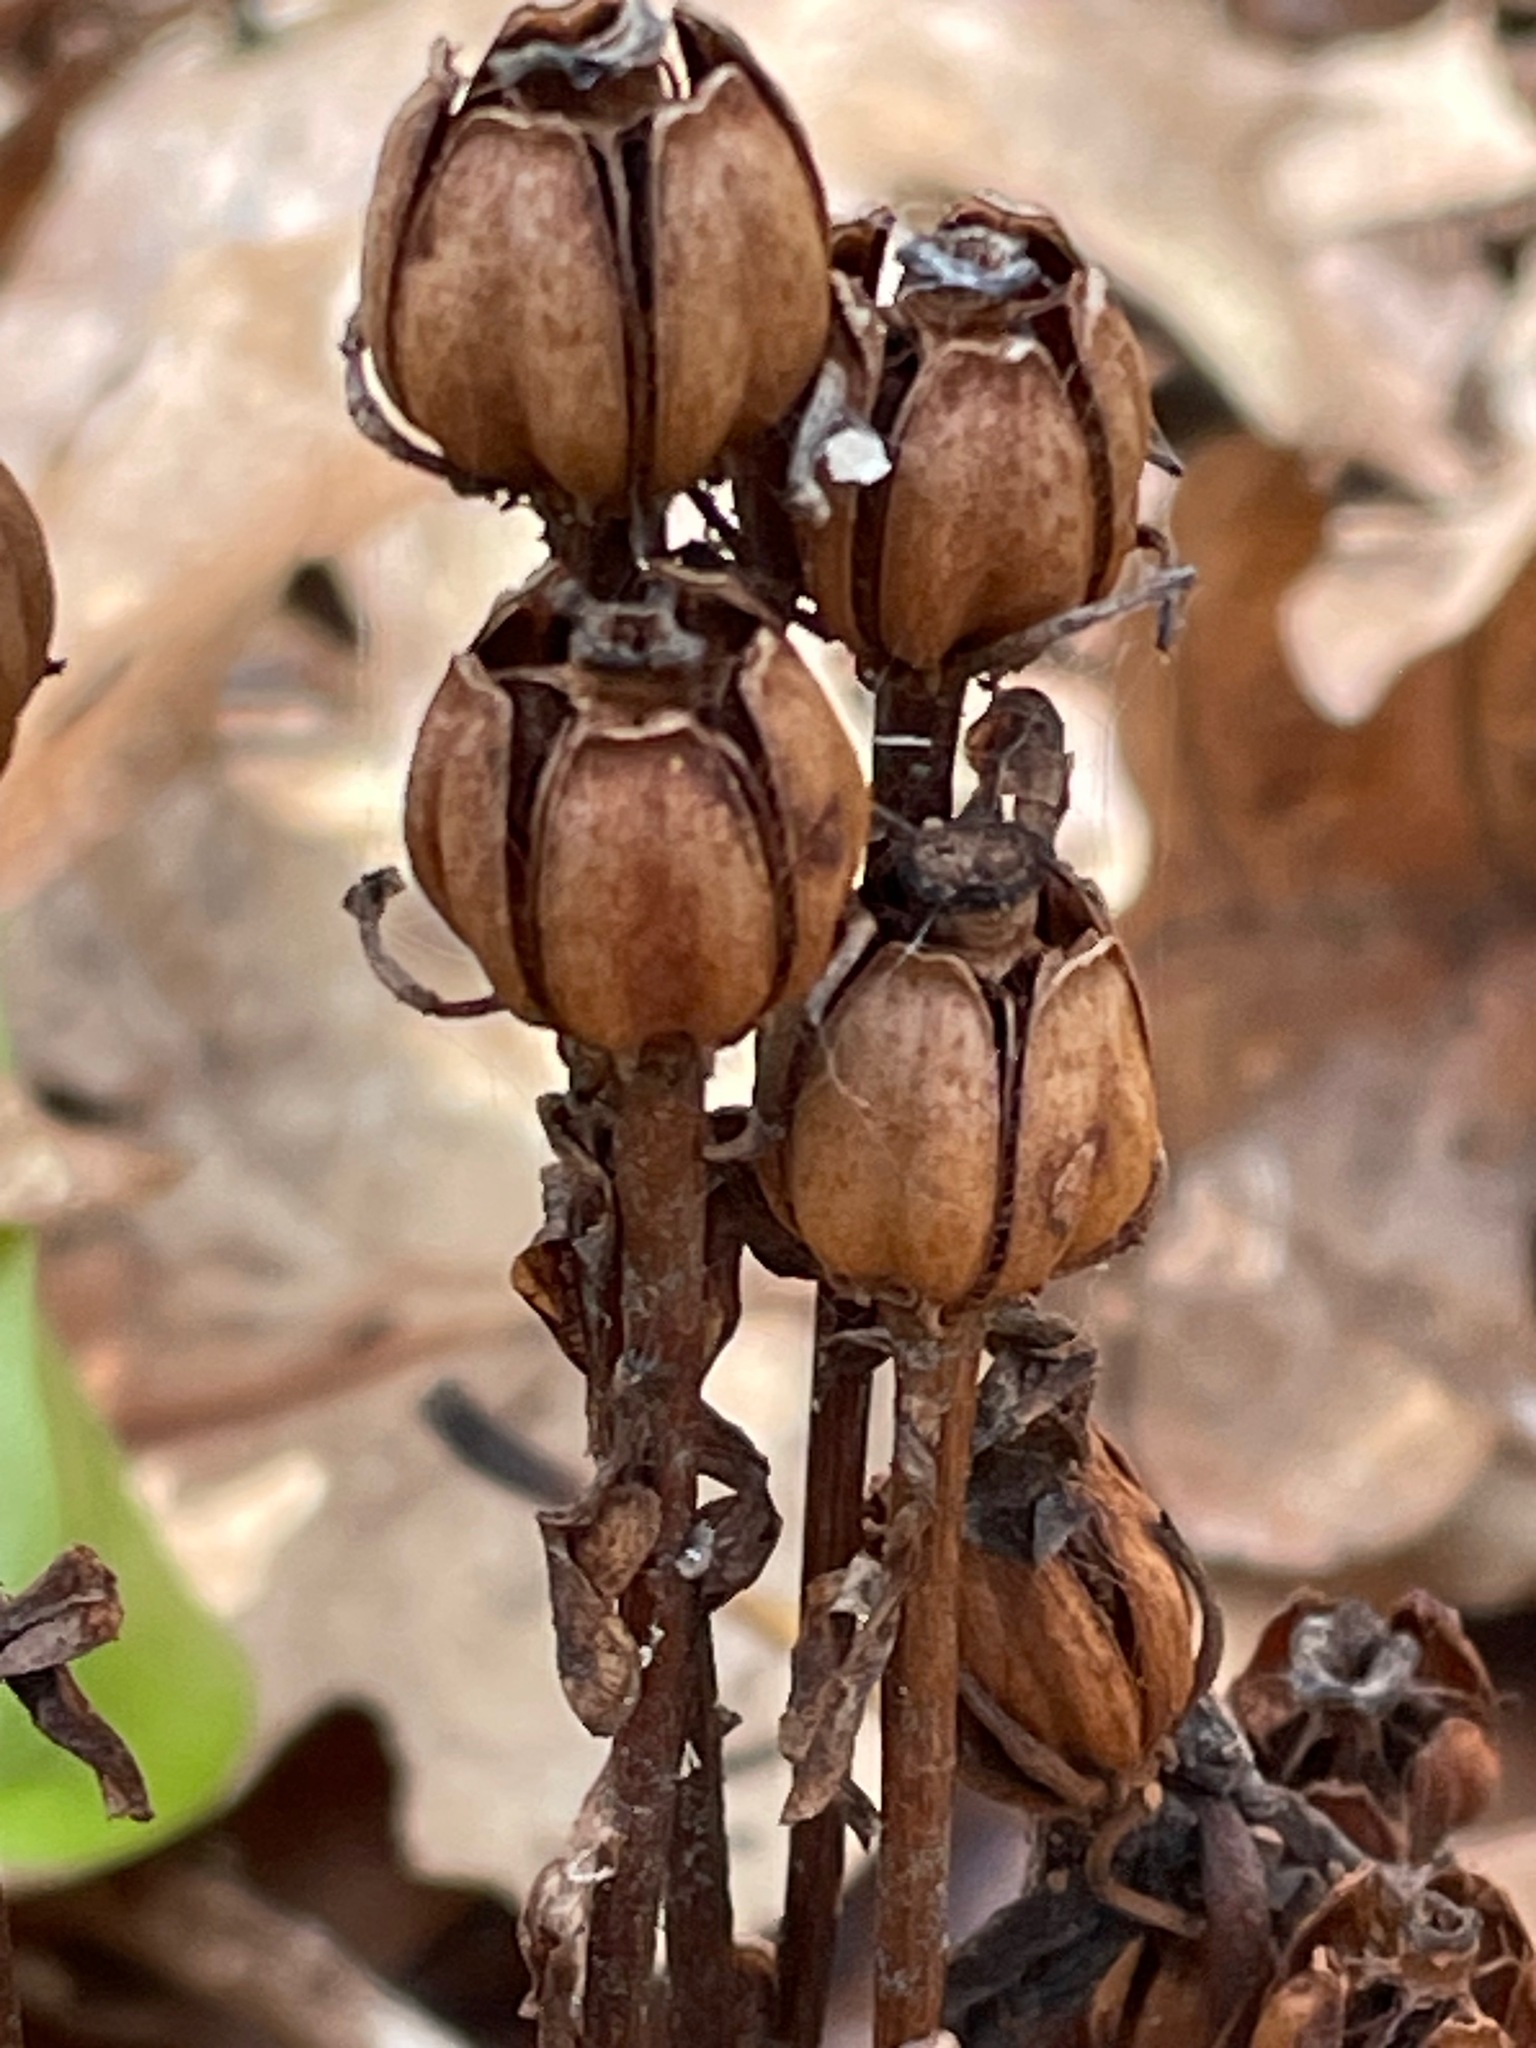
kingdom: Plantae
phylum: Tracheophyta
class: Magnoliopsida
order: Ericales
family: Ericaceae
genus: Monotropa
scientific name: Monotropa uniflora
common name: Convulsion root
